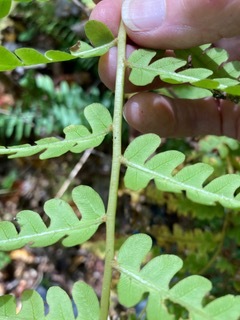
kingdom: Plantae
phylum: Tracheophyta
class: Polypodiopsida
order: Osmundales
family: Osmundaceae
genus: Osmundastrum
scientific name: Osmundastrum cinnamomeum
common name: Cinnamon fern
